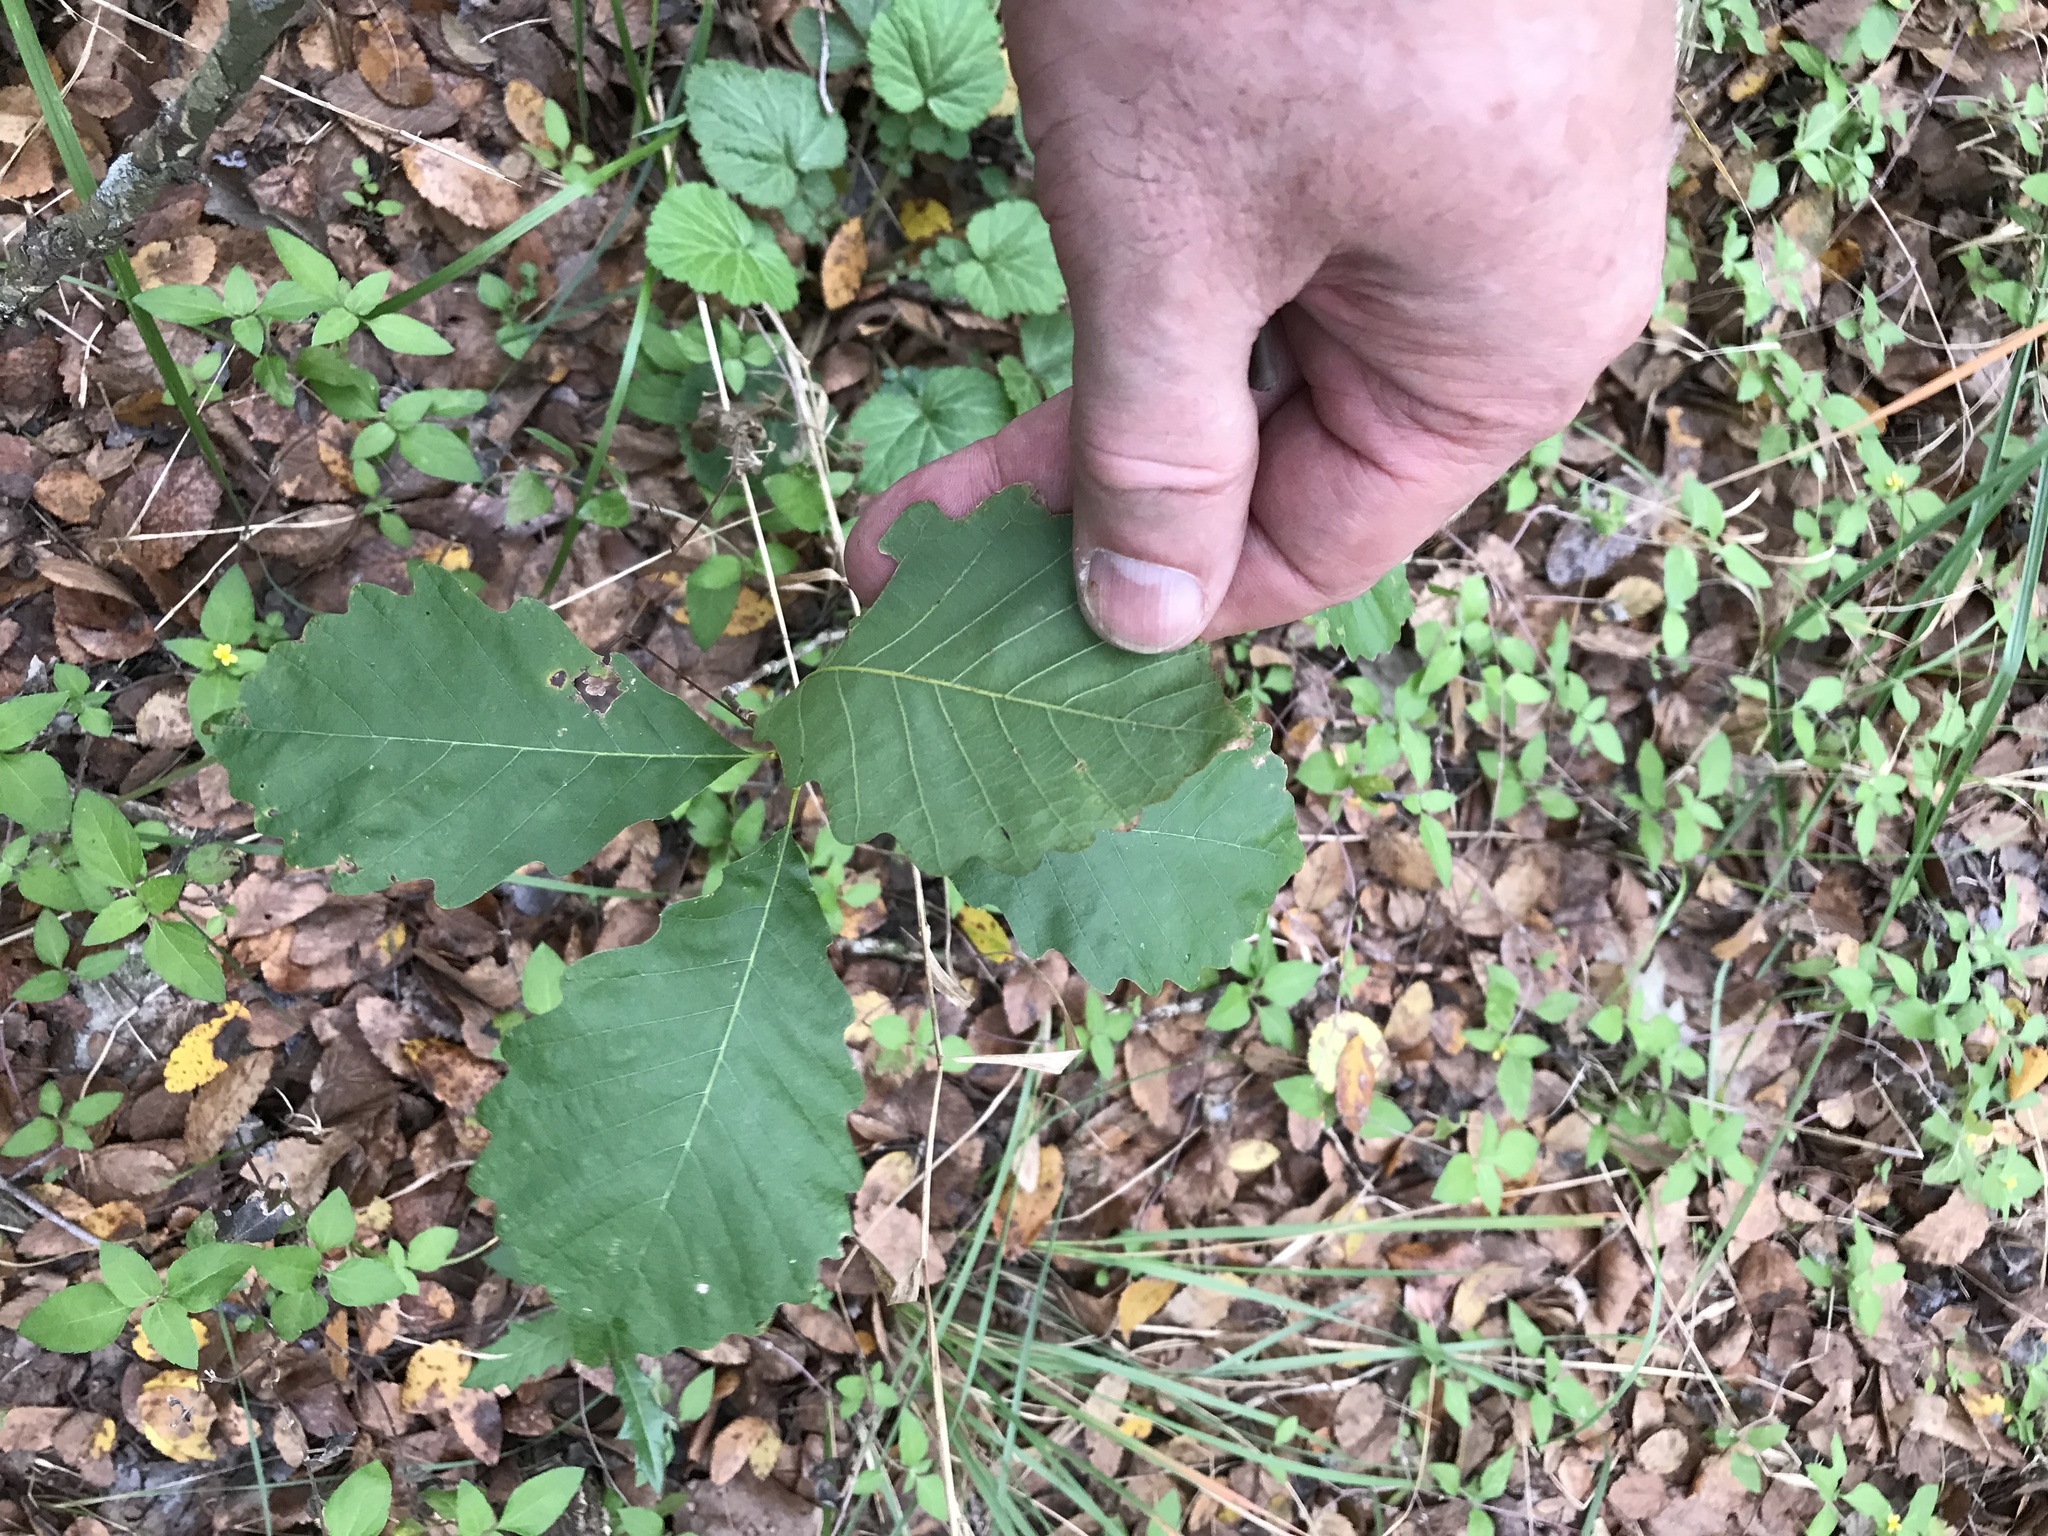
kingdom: Plantae
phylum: Tracheophyta
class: Magnoliopsida
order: Fagales
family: Fagaceae
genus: Quercus
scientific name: Quercus muehlenbergii
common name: Chinkapin oak
